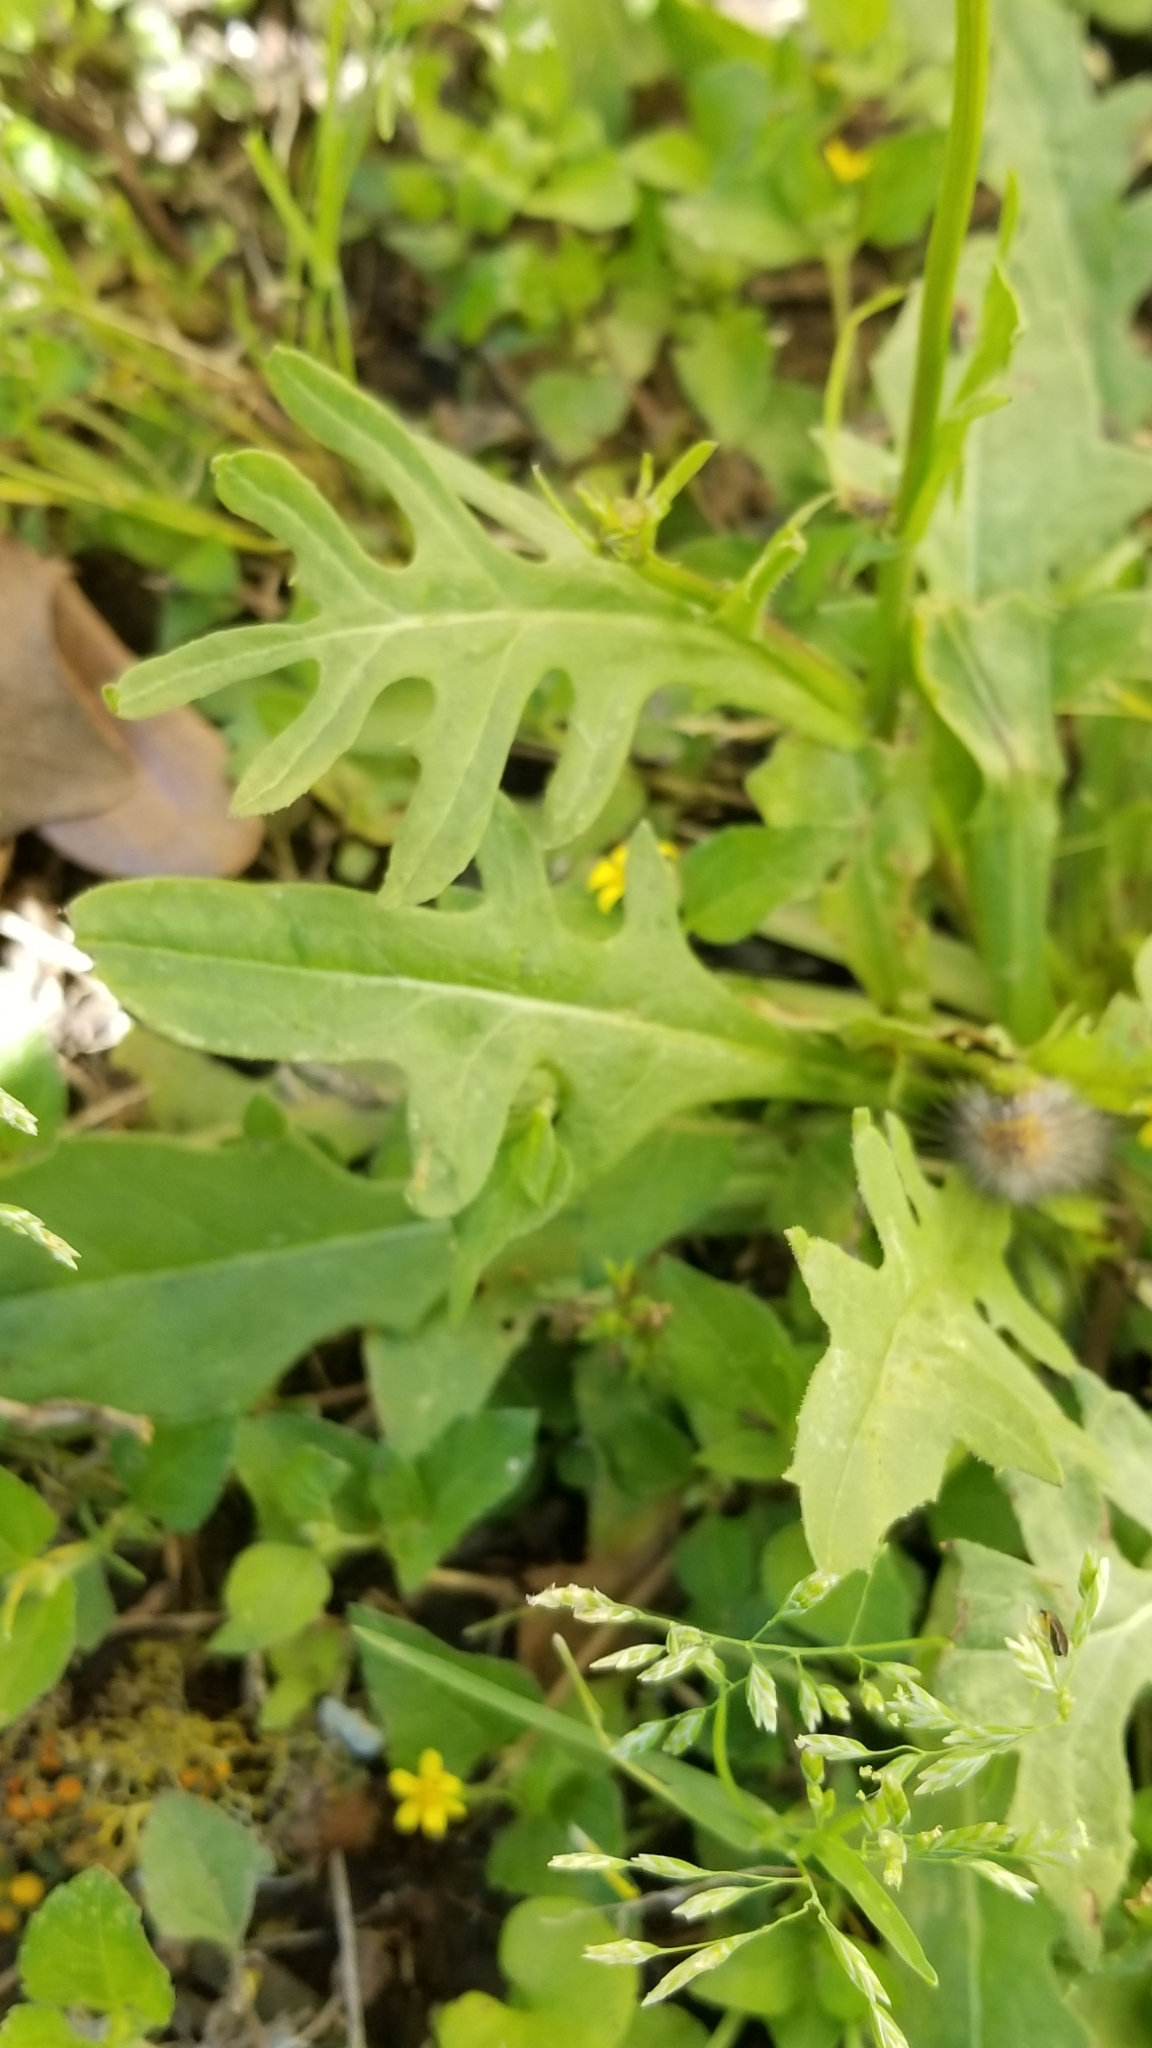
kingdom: Plantae
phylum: Tracheophyta
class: Magnoliopsida
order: Asterales
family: Asteraceae
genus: Pyrrhopappus
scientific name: Pyrrhopappus pauciflorus
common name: Texas false dandelion
